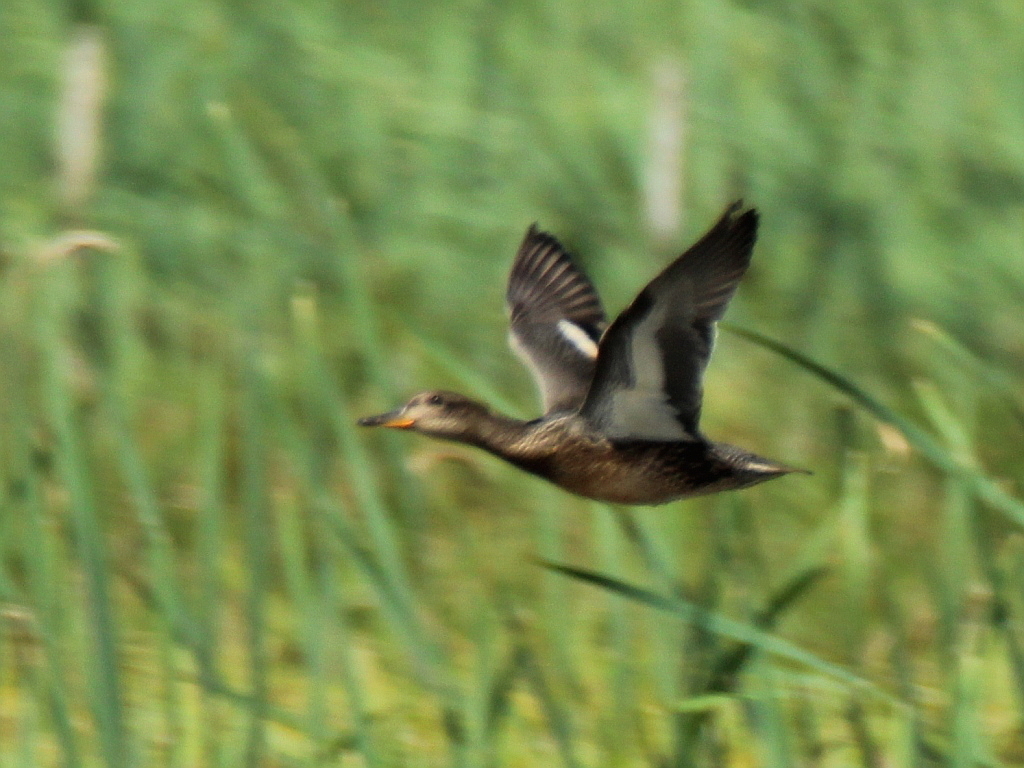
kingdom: Animalia
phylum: Chordata
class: Aves
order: Anseriformes
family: Anatidae
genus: Anas
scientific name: Anas crecca
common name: Eurasian teal
